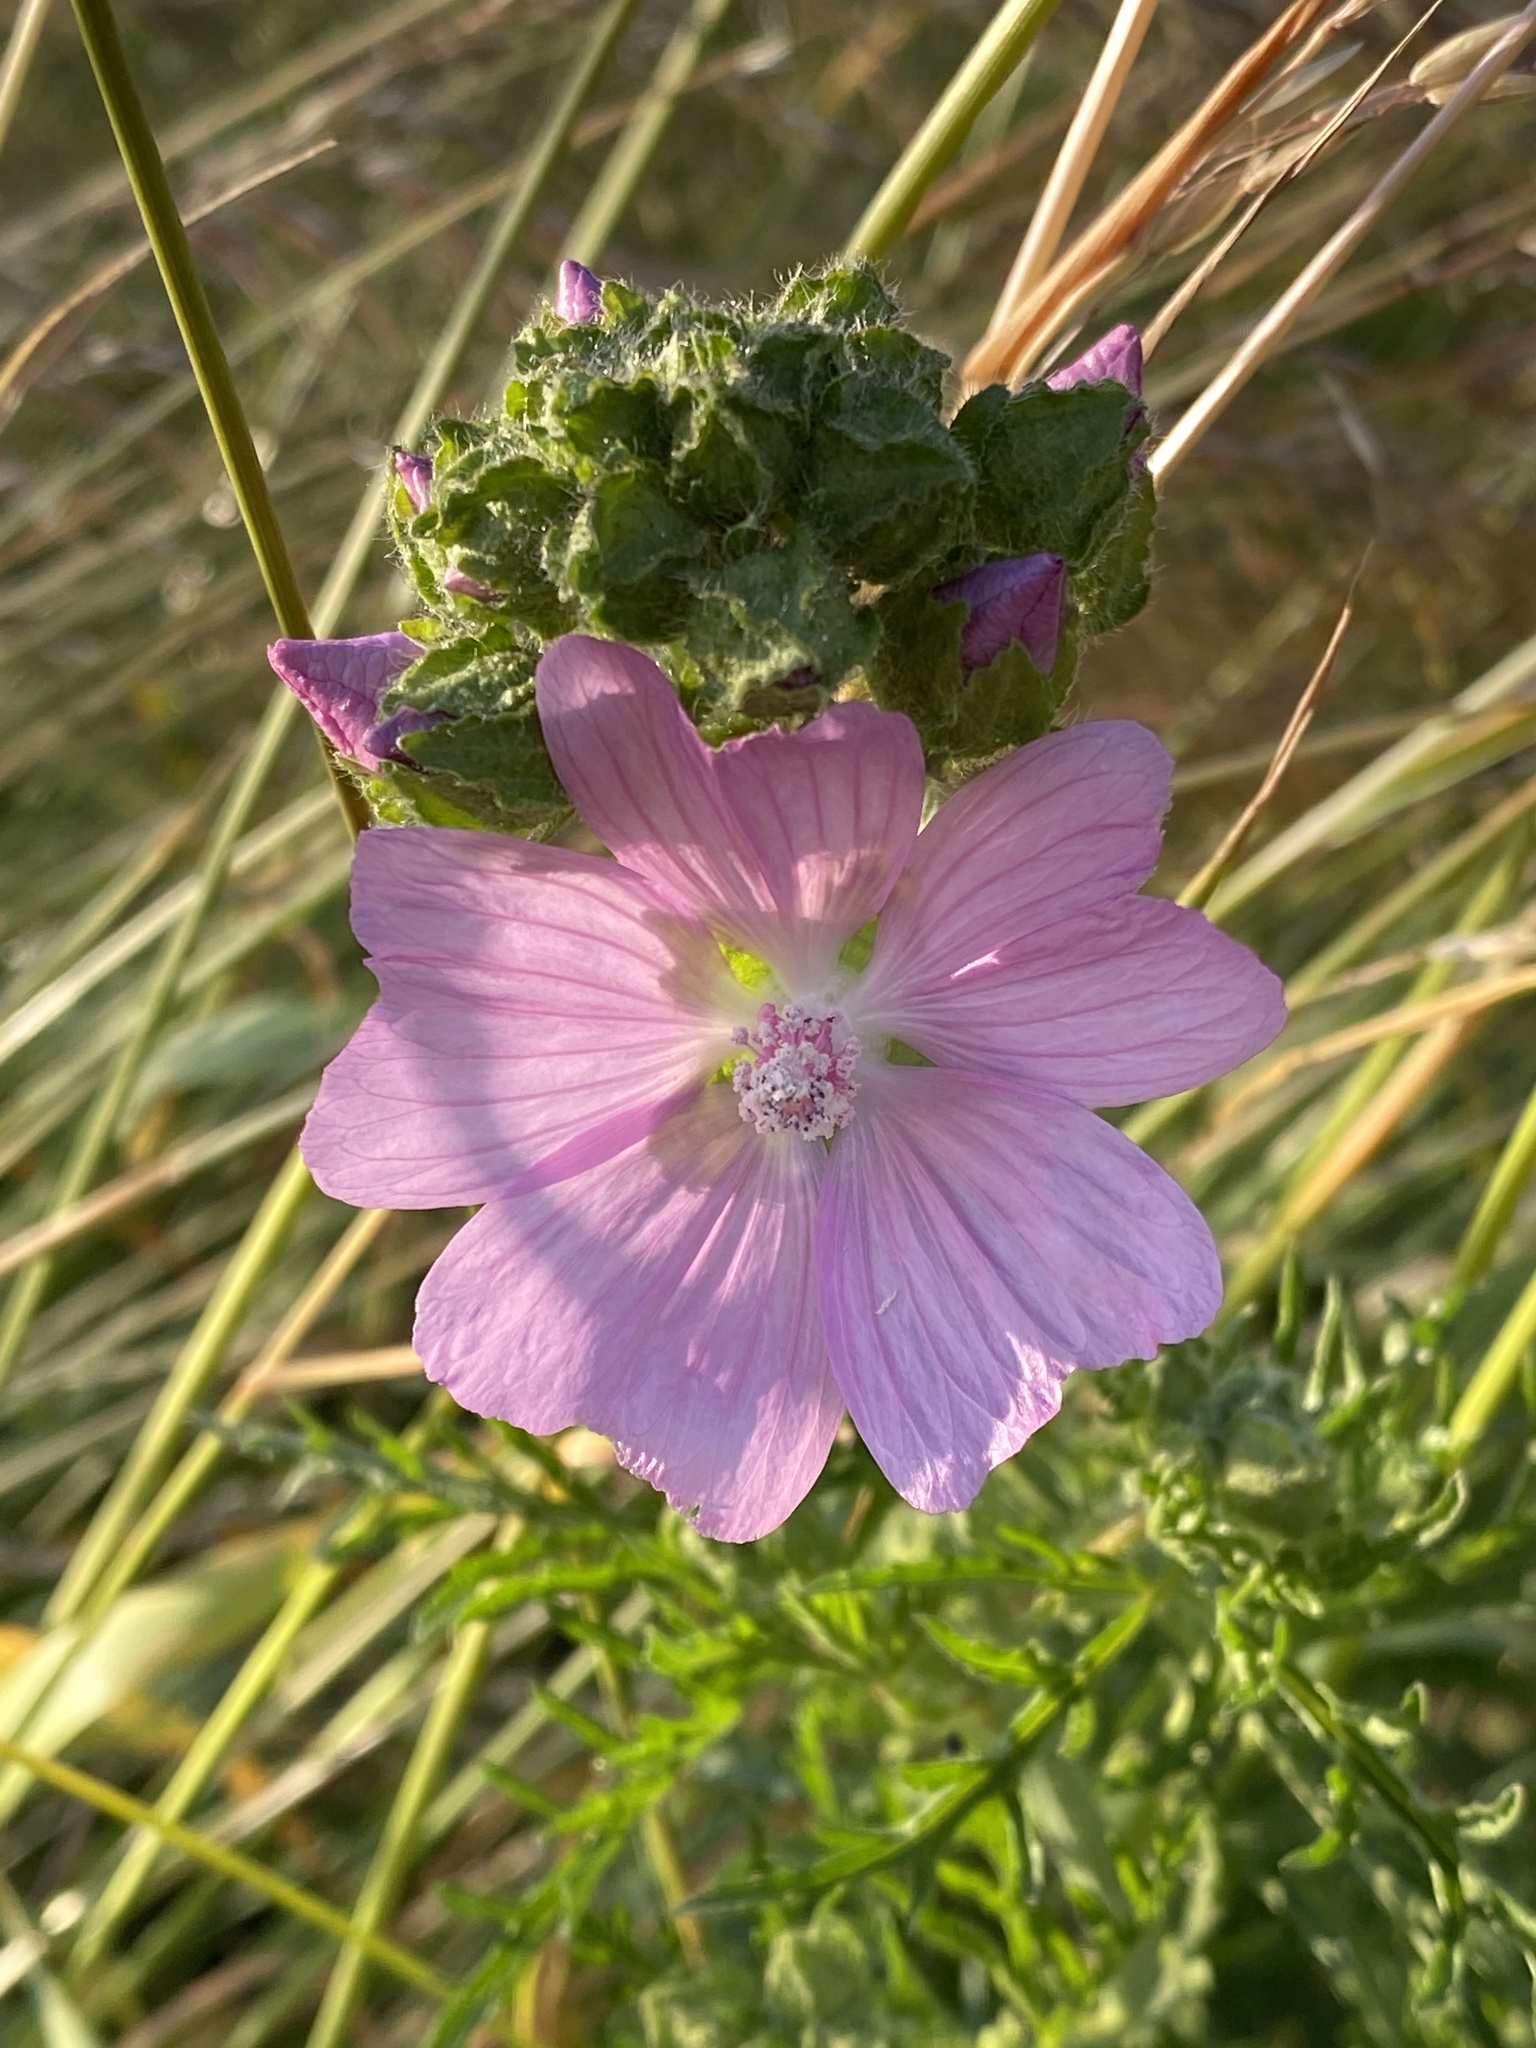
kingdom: Plantae
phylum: Tracheophyta
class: Magnoliopsida
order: Malvales
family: Malvaceae
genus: Malva
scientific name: Malva moschata
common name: Musk mallow
